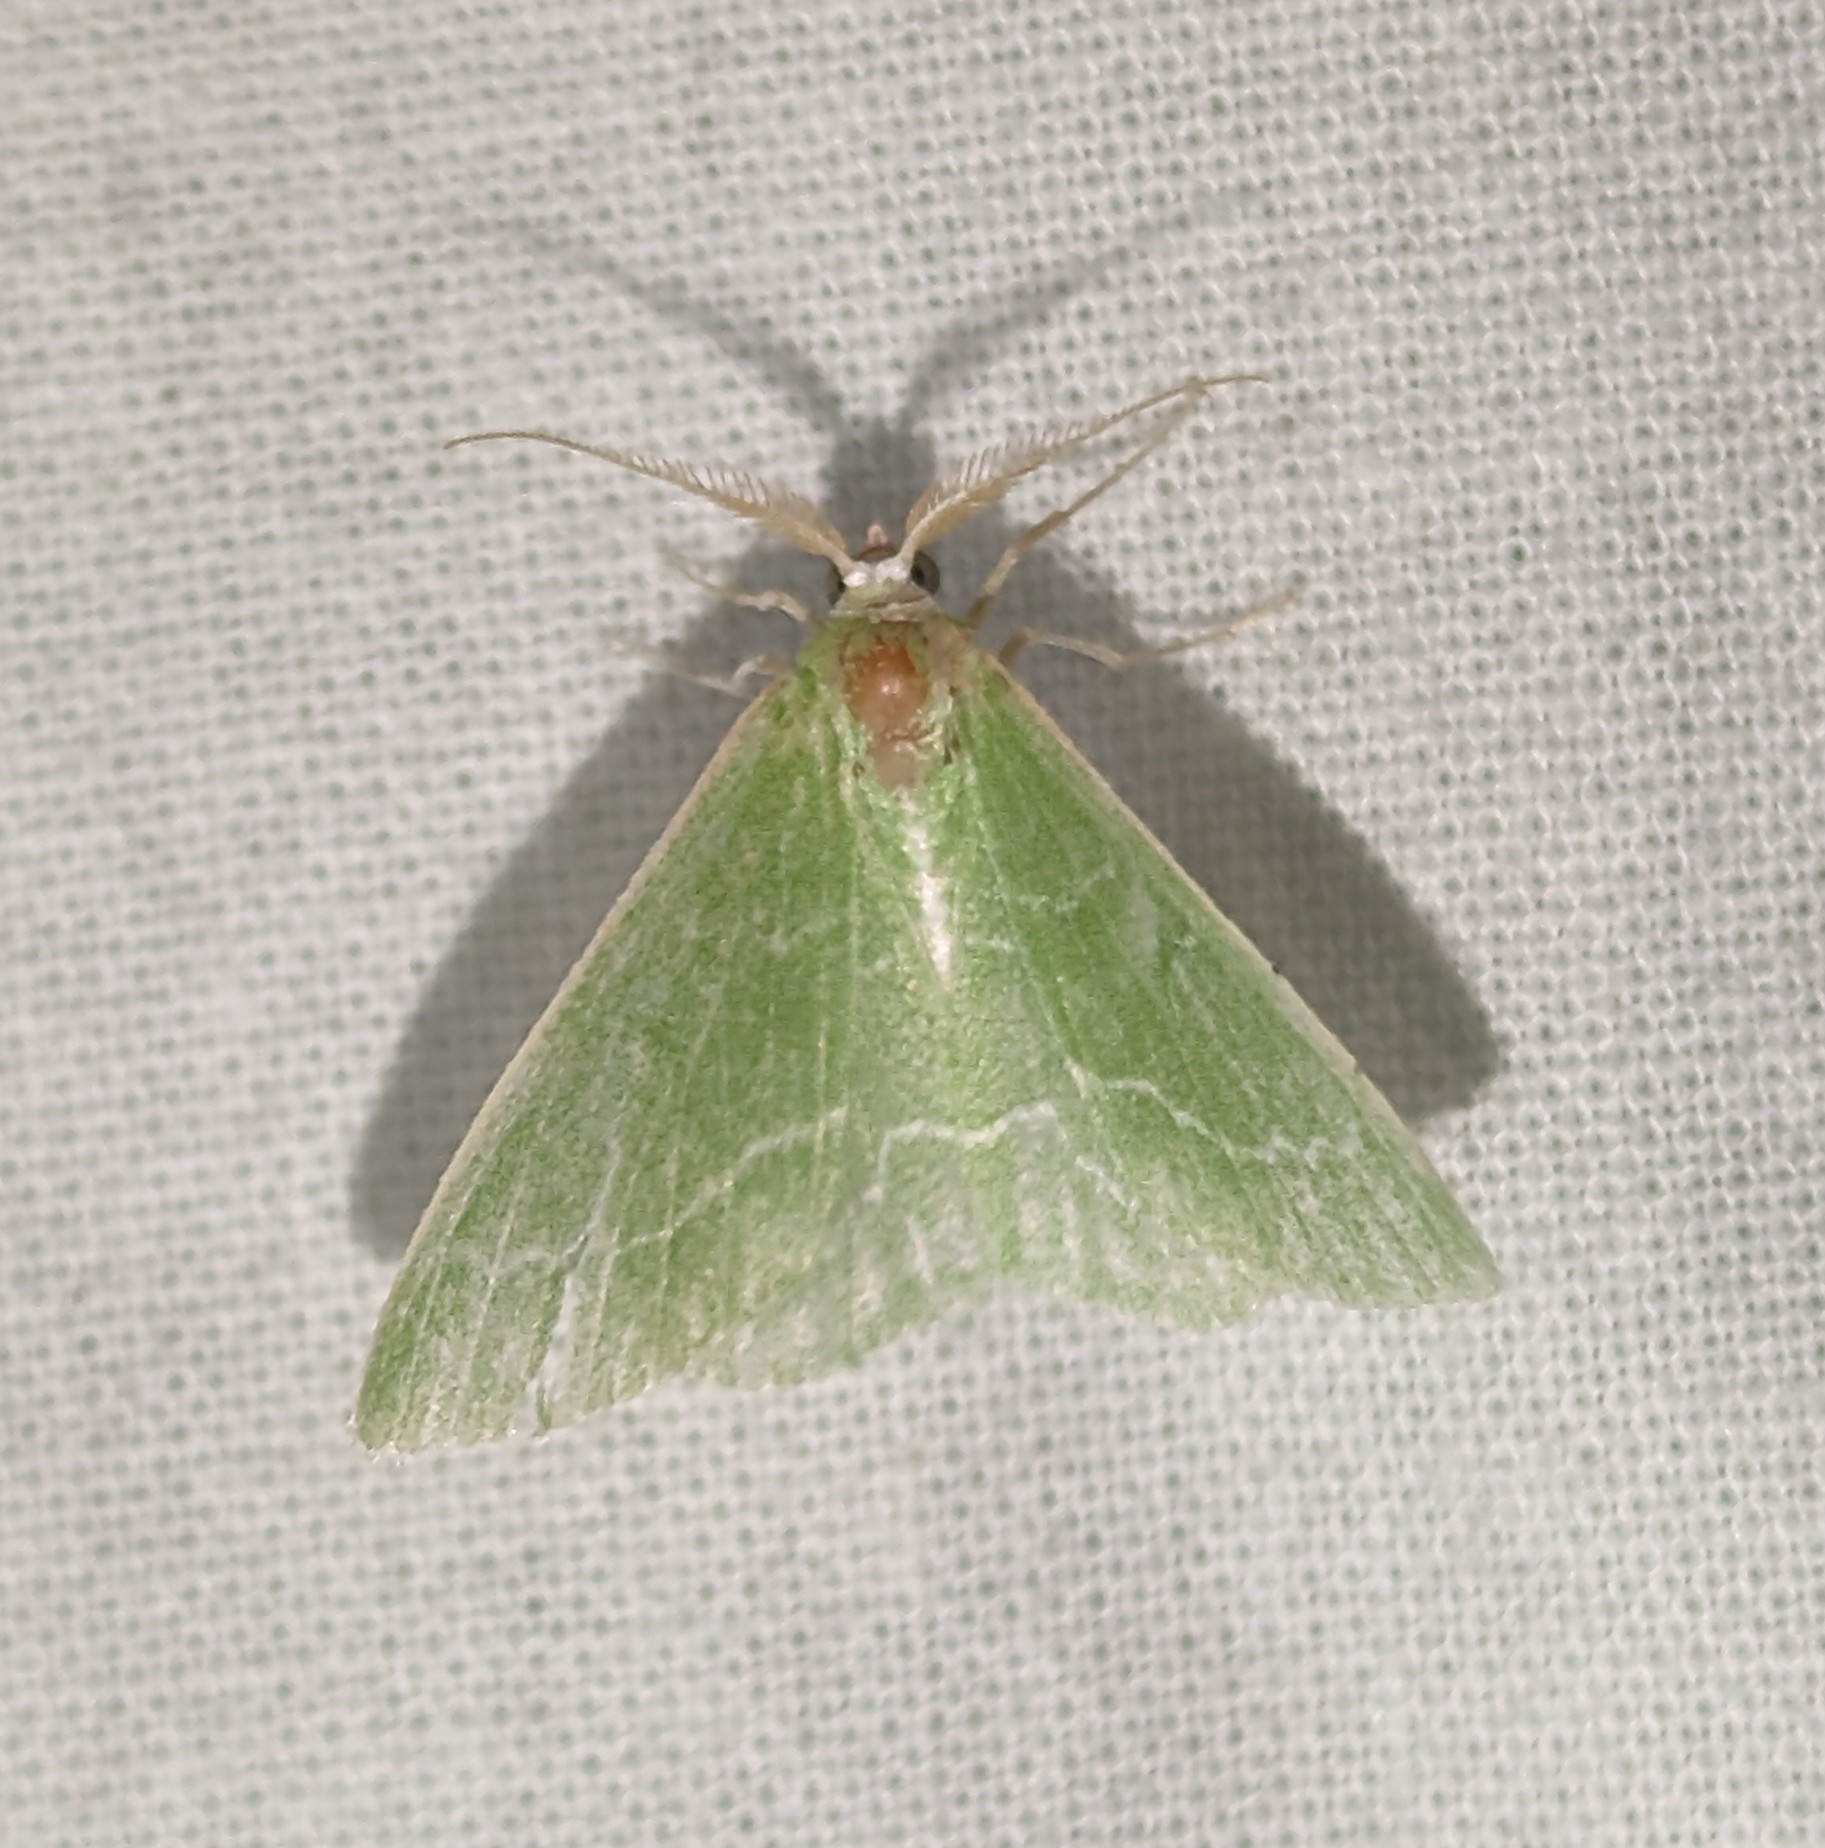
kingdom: Animalia
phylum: Arthropoda
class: Insecta
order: Lepidoptera
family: Geometridae
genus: Synchlora
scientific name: Synchlora aerata
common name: Wavy-lined emerald
